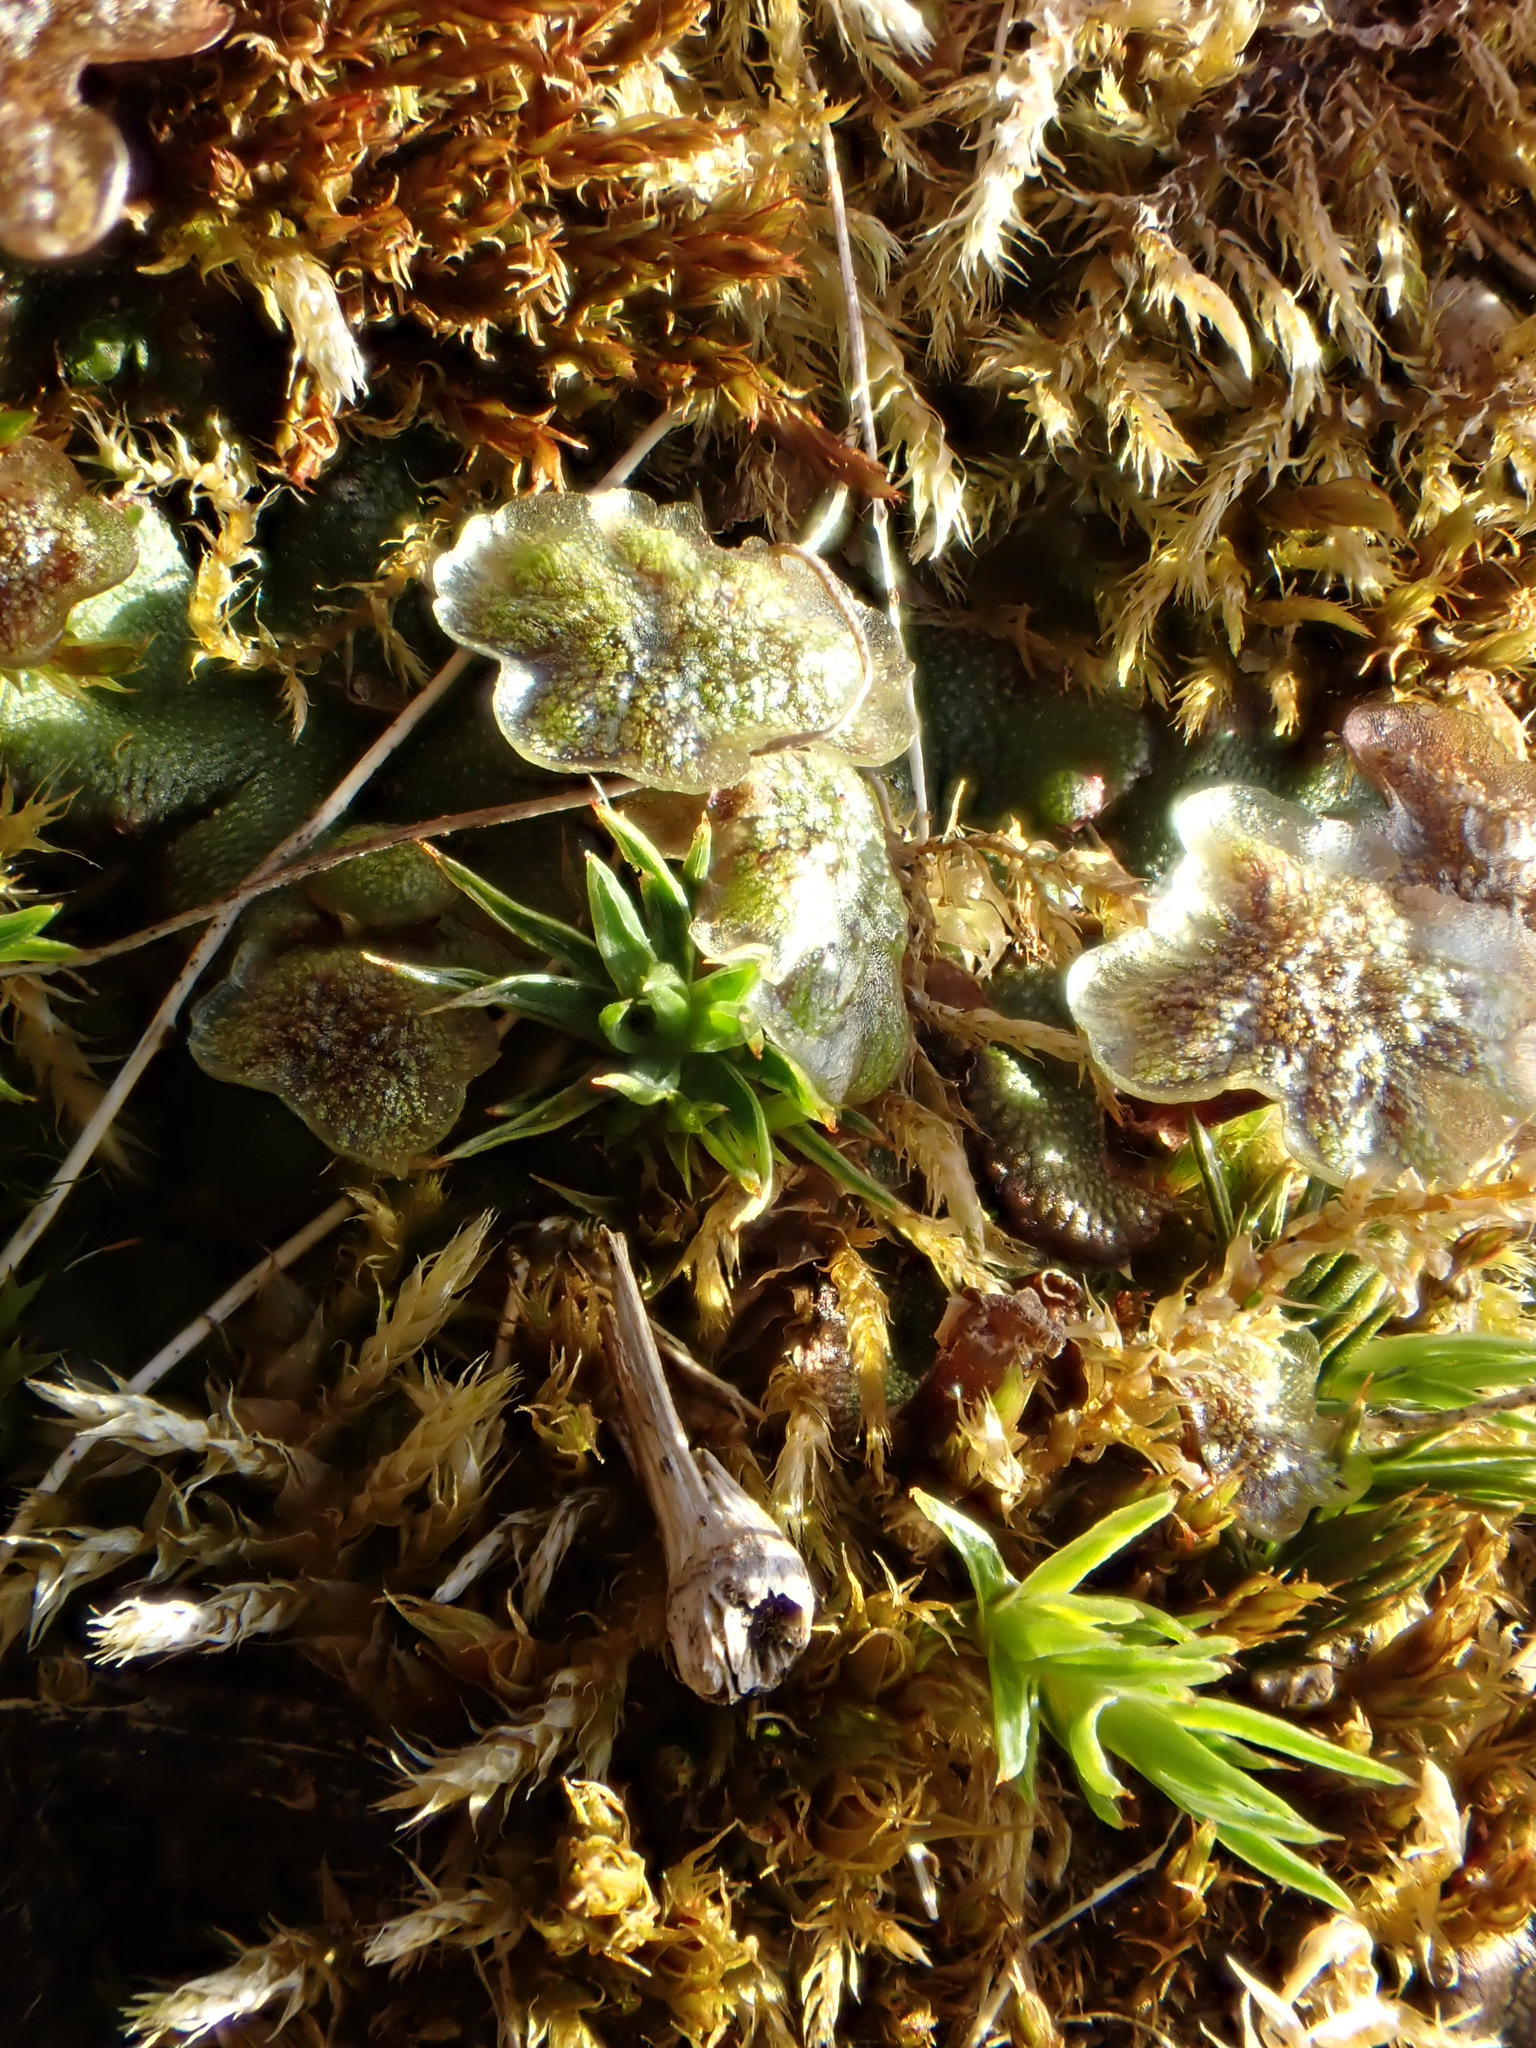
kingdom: Plantae
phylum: Marchantiophyta
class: Marchantiopsida
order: Marchantiales
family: Marchantiaceae
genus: Marchantia
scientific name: Marchantia polymorpha
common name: Common liverwort
